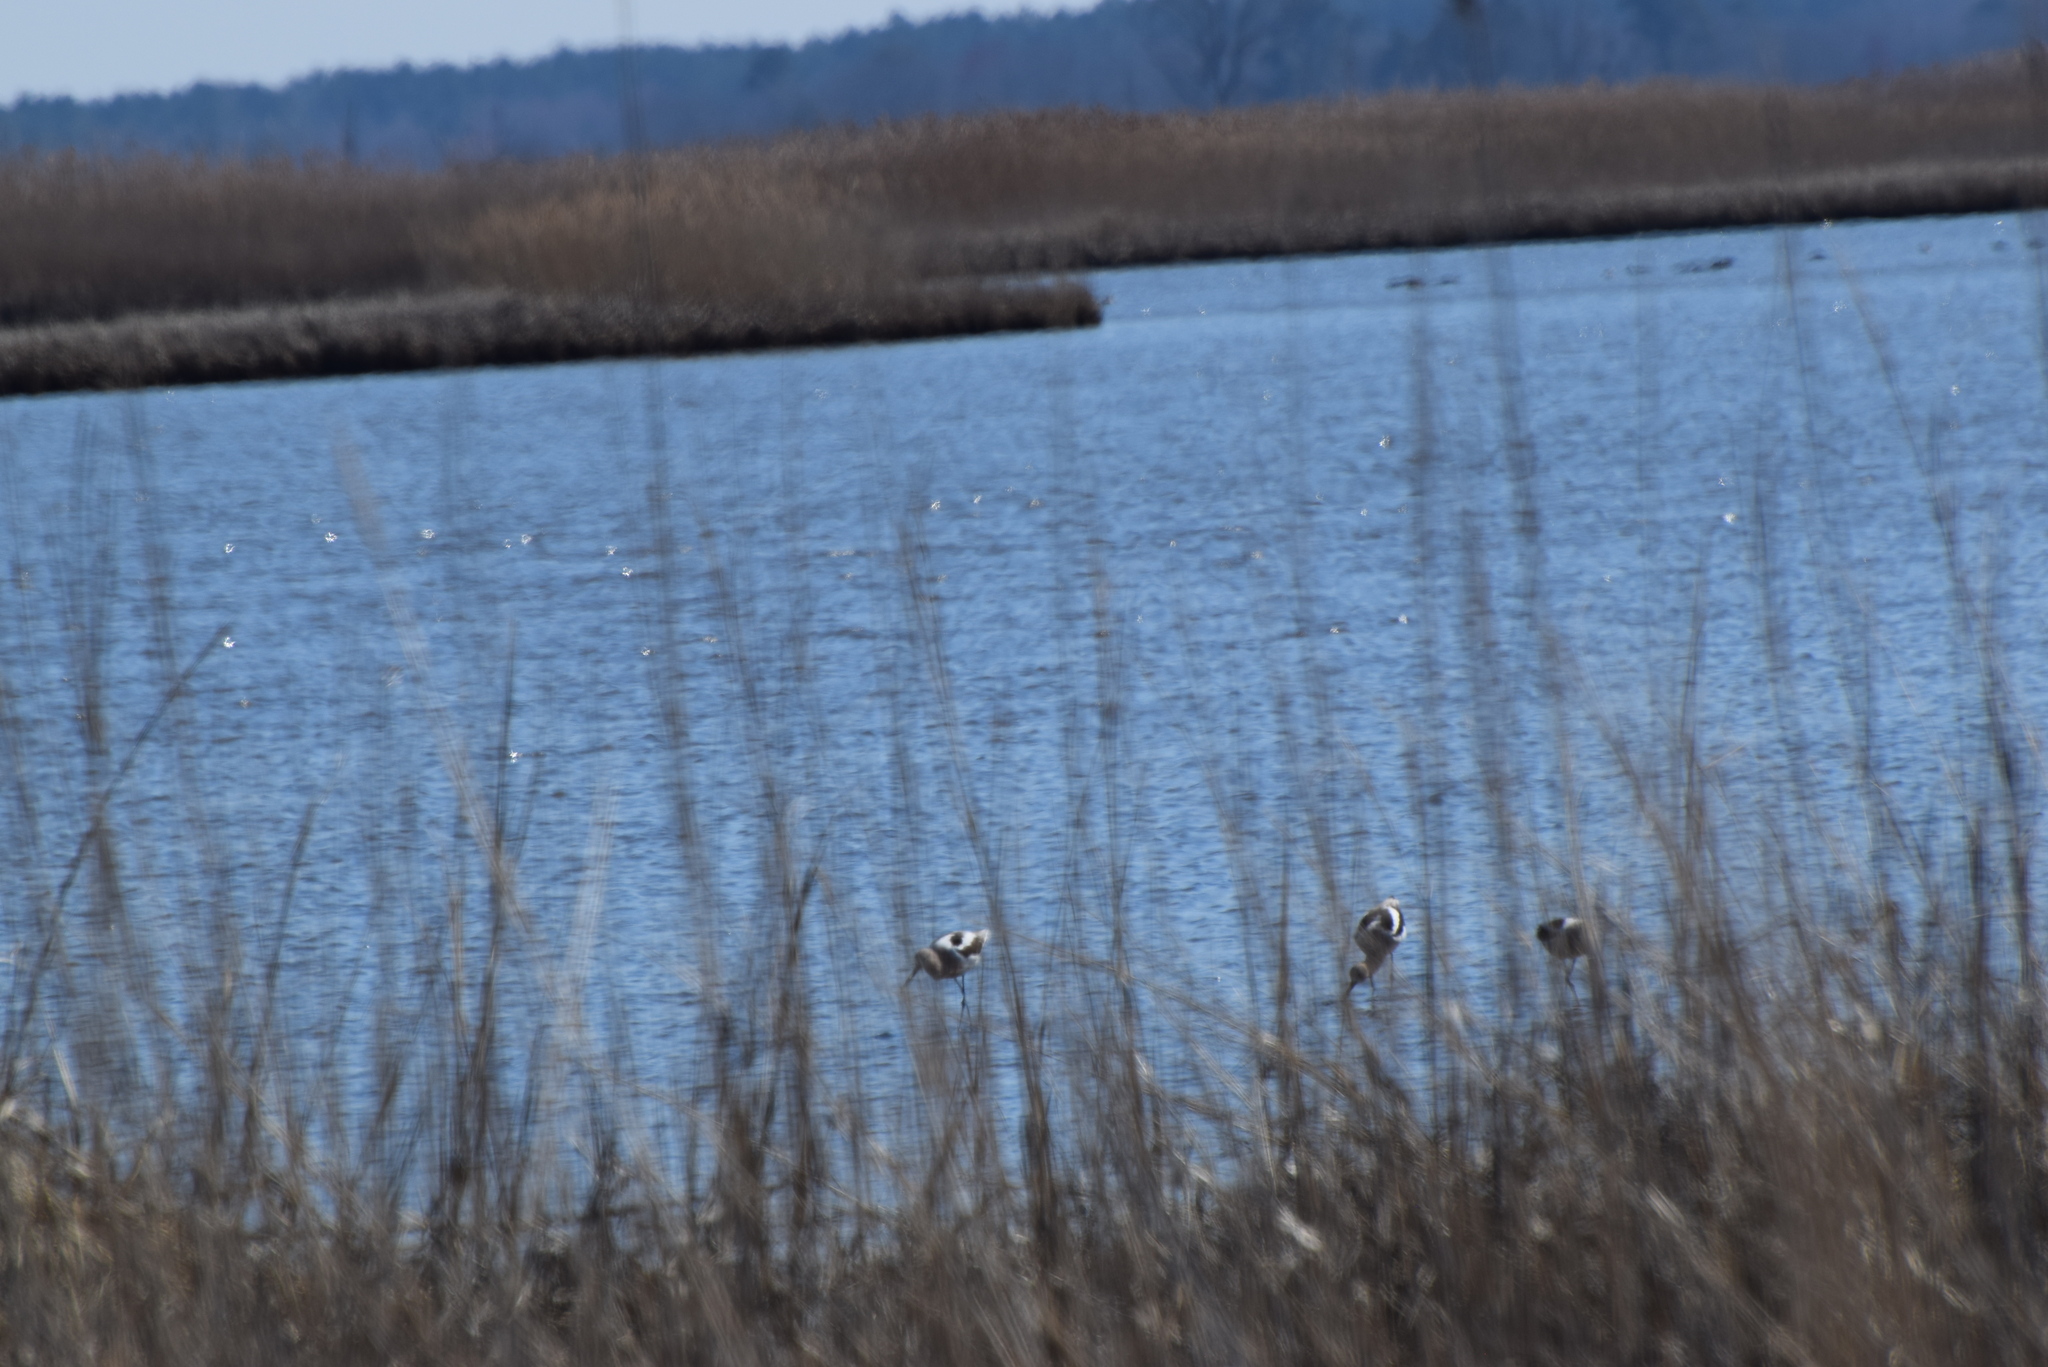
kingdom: Animalia
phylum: Chordata
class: Aves
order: Charadriiformes
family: Recurvirostridae
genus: Recurvirostra
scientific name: Recurvirostra americana
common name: American avocet
